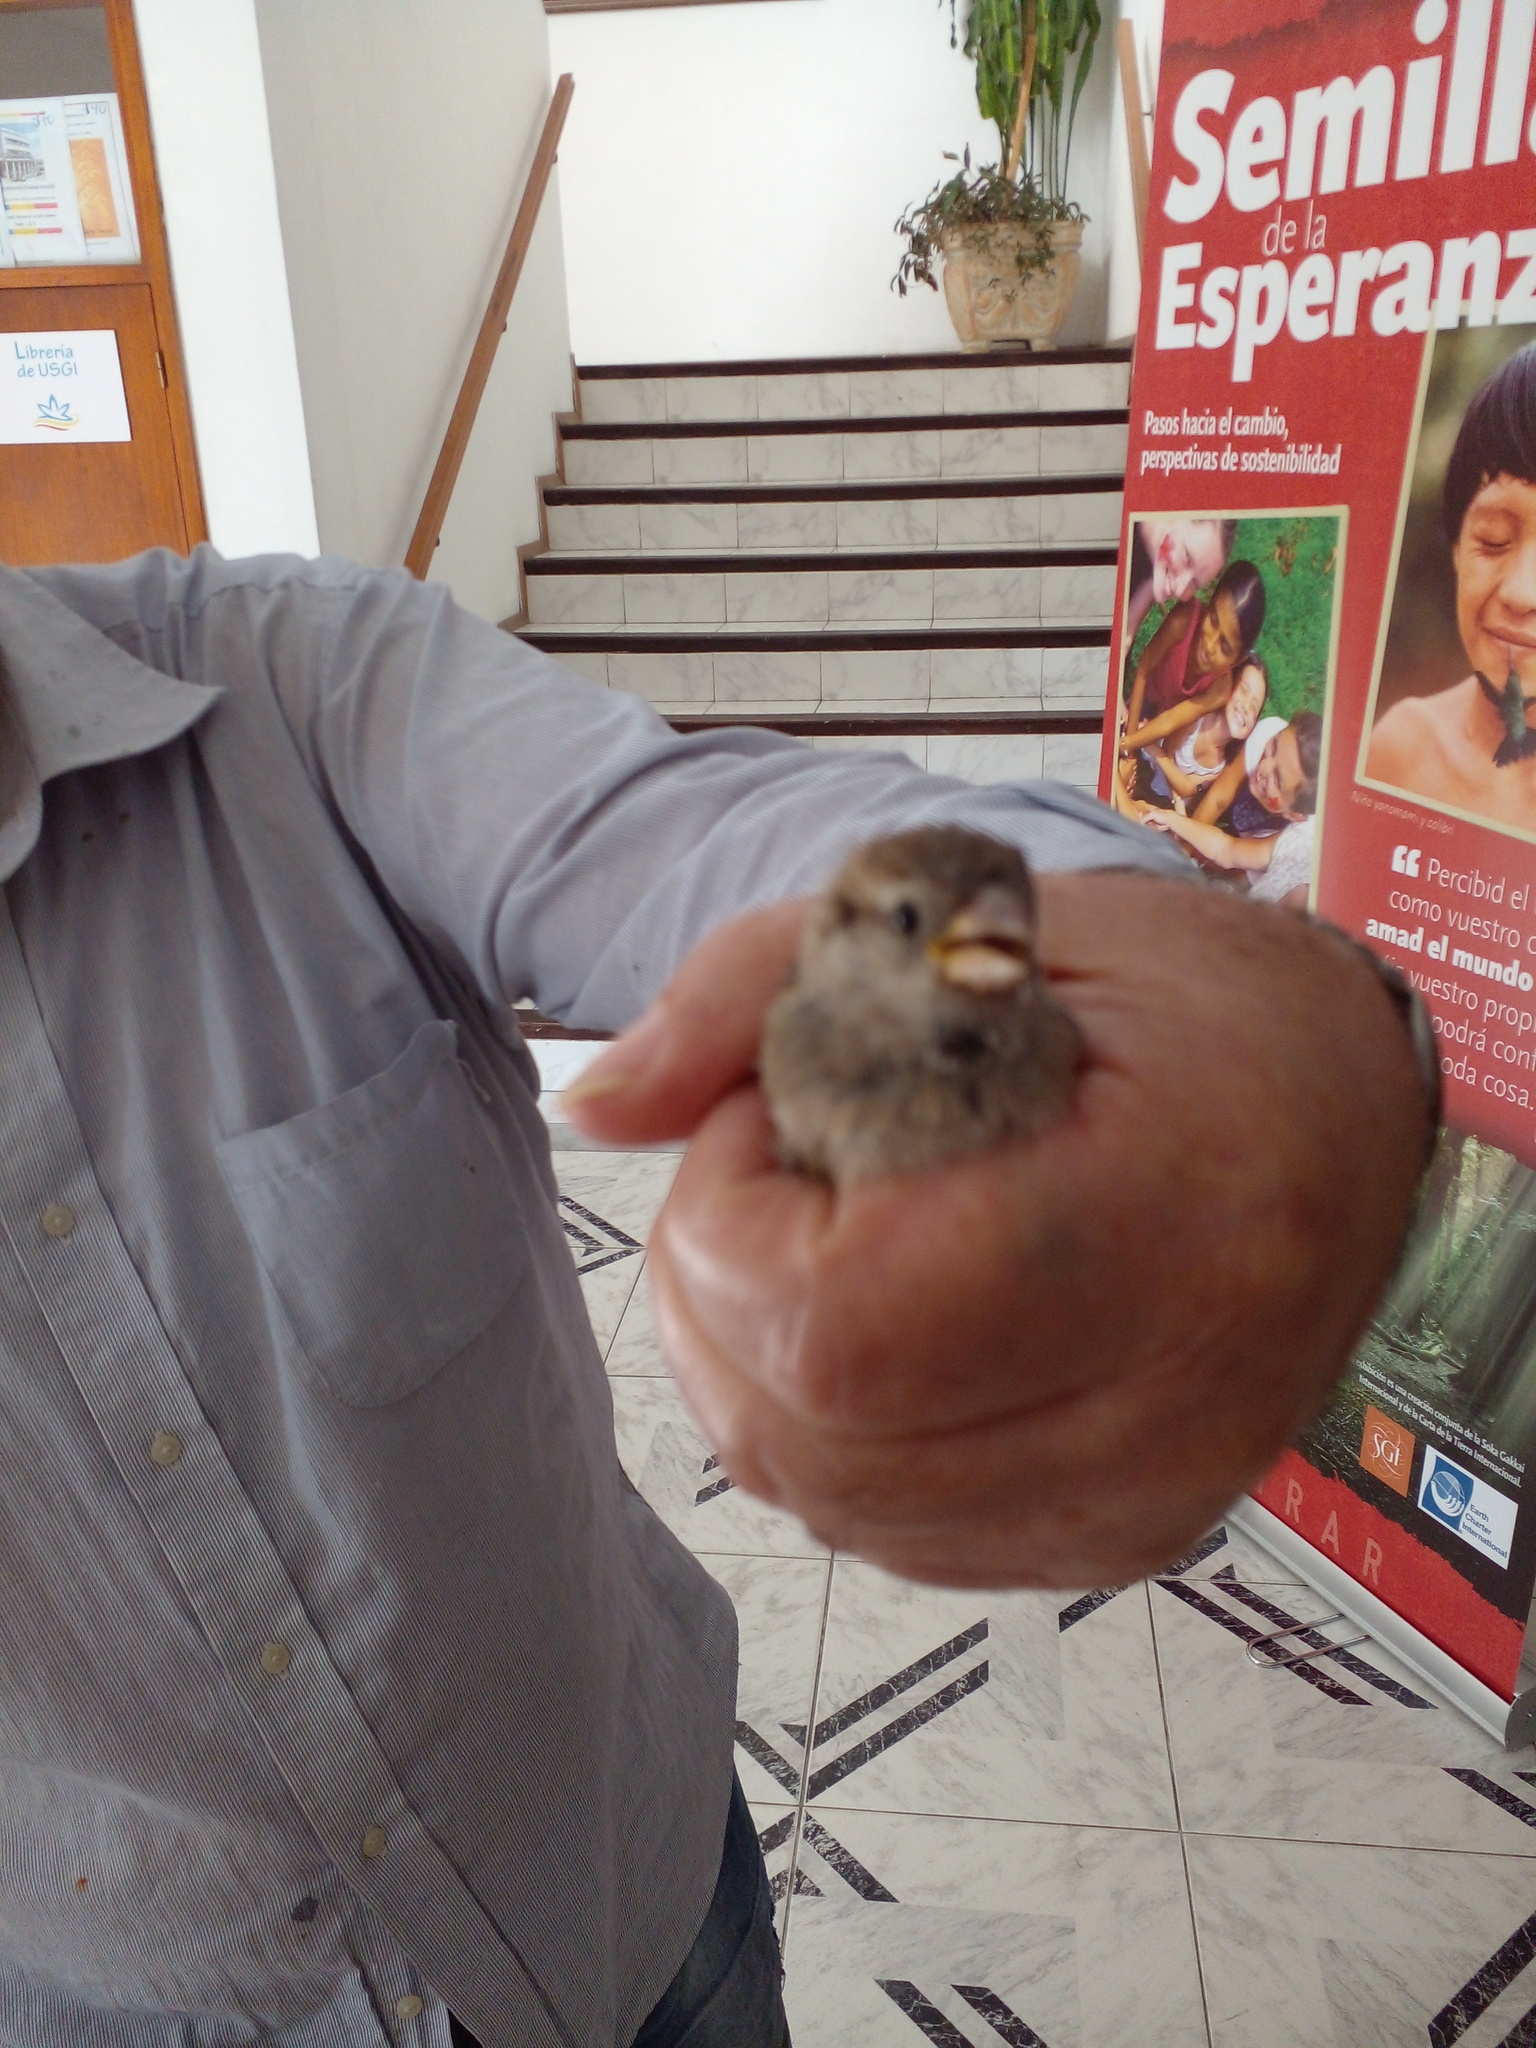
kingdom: Animalia
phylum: Chordata
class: Aves
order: Passeriformes
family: Passeridae
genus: Passer
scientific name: Passer domesticus
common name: House sparrow
